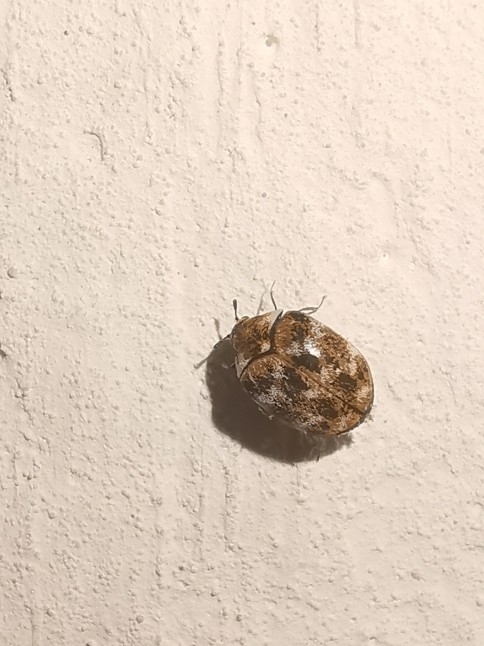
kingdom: Animalia
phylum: Arthropoda
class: Insecta
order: Coleoptera
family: Dermestidae
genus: Anthrenus
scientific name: Anthrenus verbasci
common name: Varied carpet beetle
